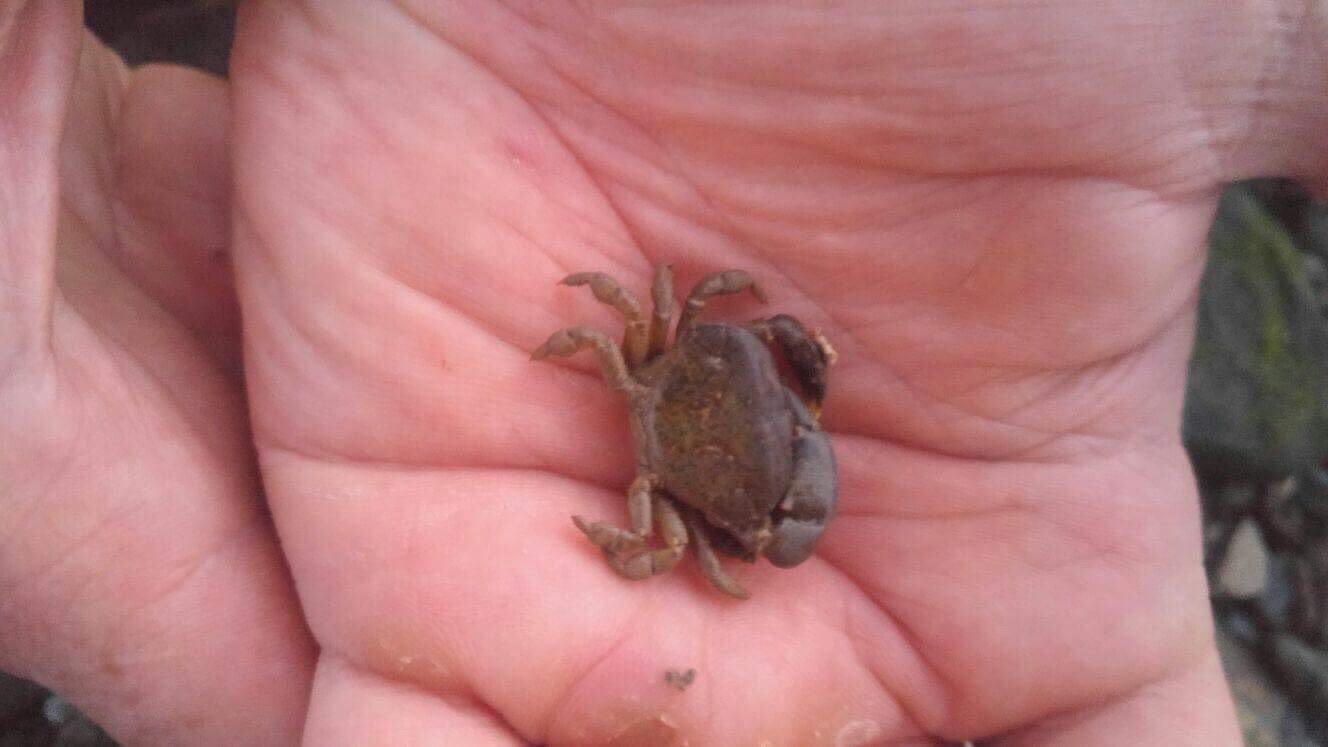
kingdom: Animalia
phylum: Arthropoda
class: Malacostraca
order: Decapoda
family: Heteroziidae
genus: Heterozius
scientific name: Heterozius rotundifrons
